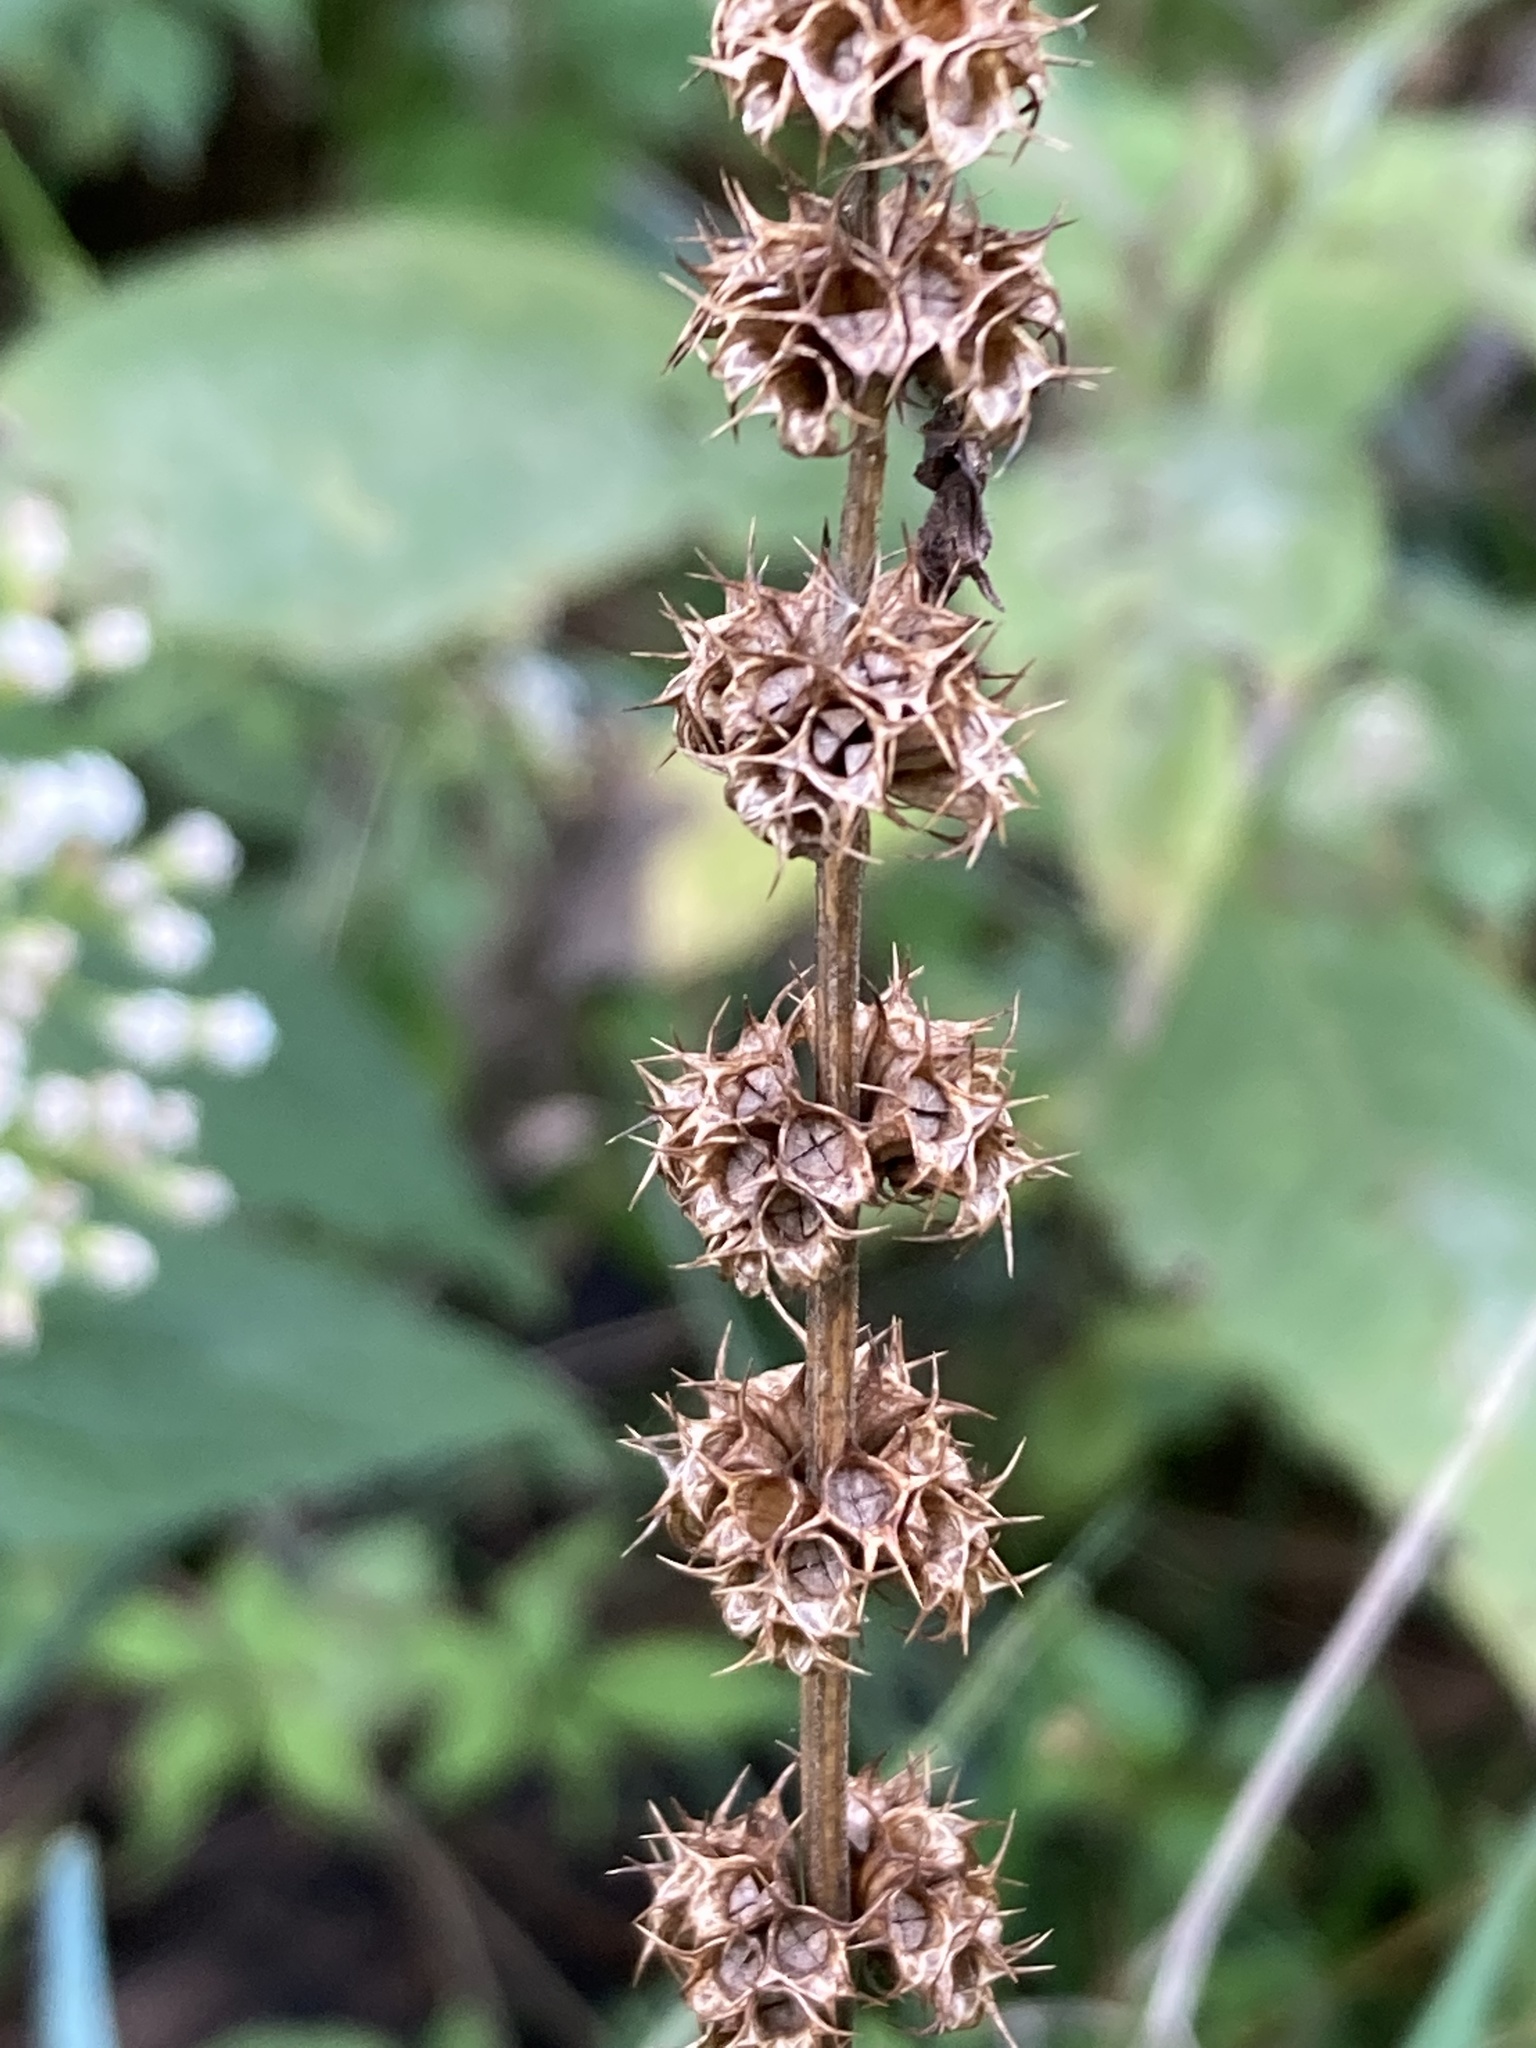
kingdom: Plantae
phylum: Tracheophyta
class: Magnoliopsida
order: Lamiales
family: Lamiaceae
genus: Leonurus
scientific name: Leonurus cardiaca
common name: Motherwort
